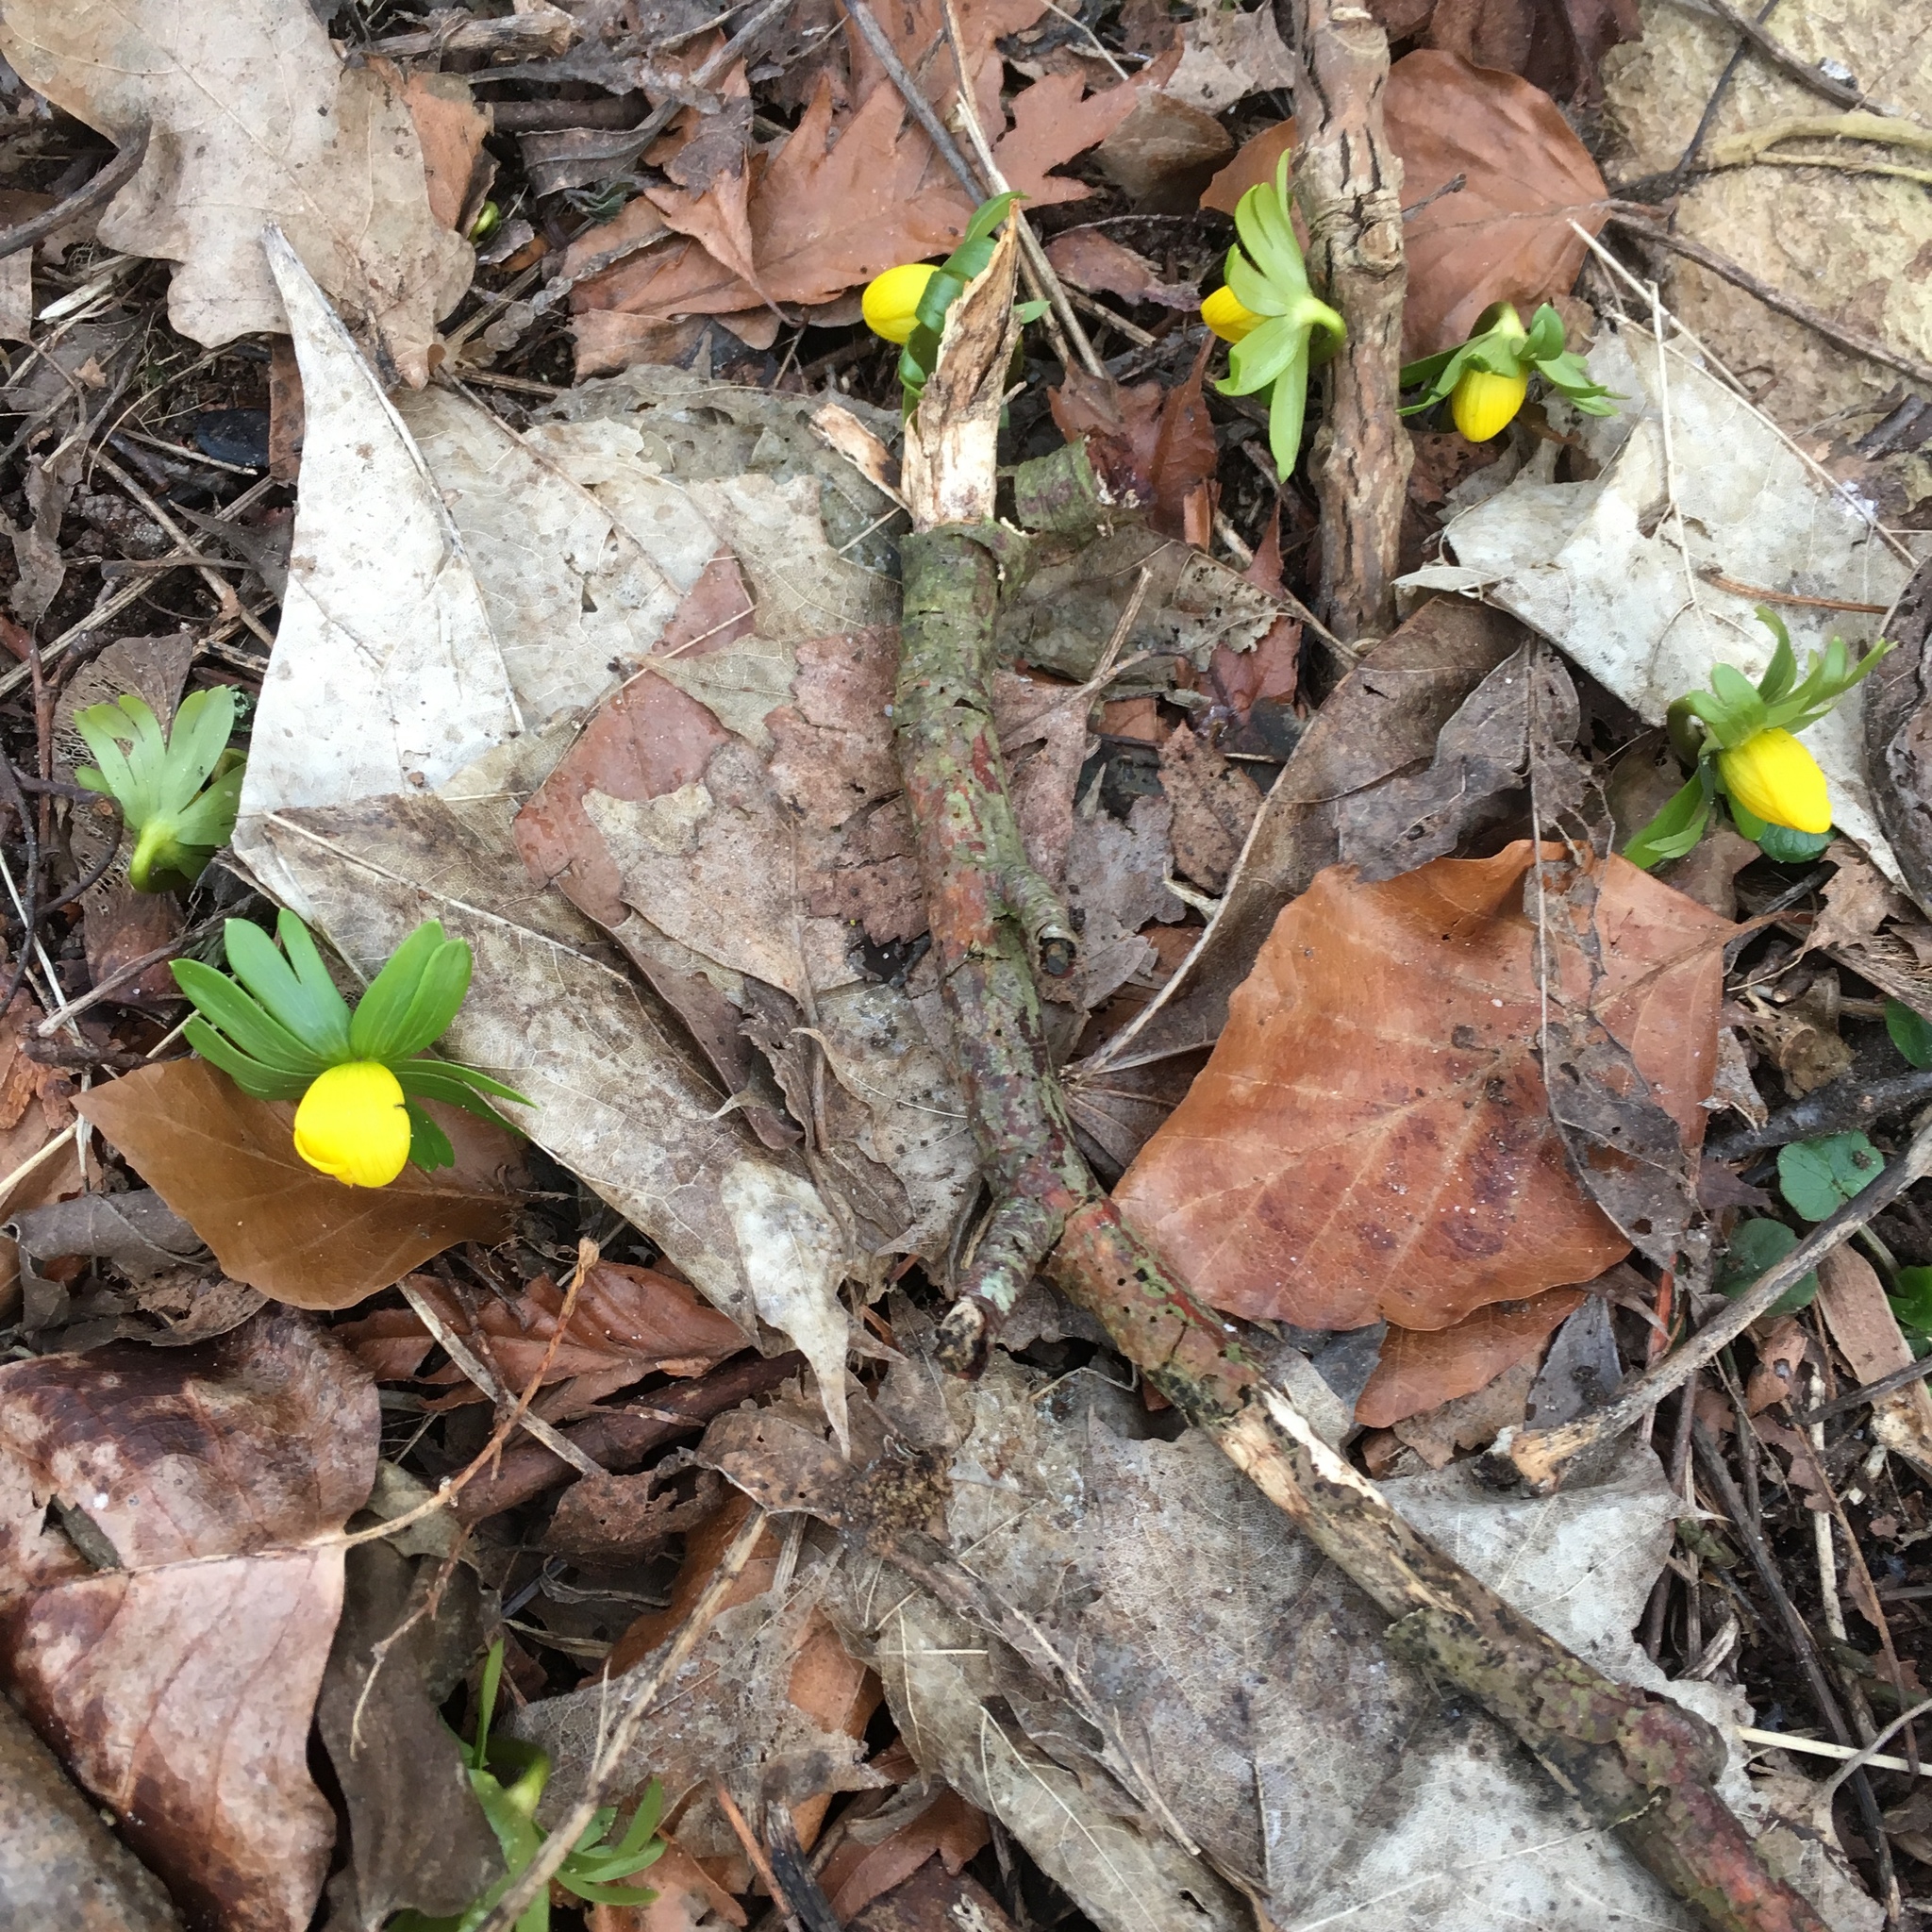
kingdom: Plantae
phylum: Tracheophyta
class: Magnoliopsida
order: Ranunculales
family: Ranunculaceae
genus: Eranthis
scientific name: Eranthis hyemalis
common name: Winter aconite
